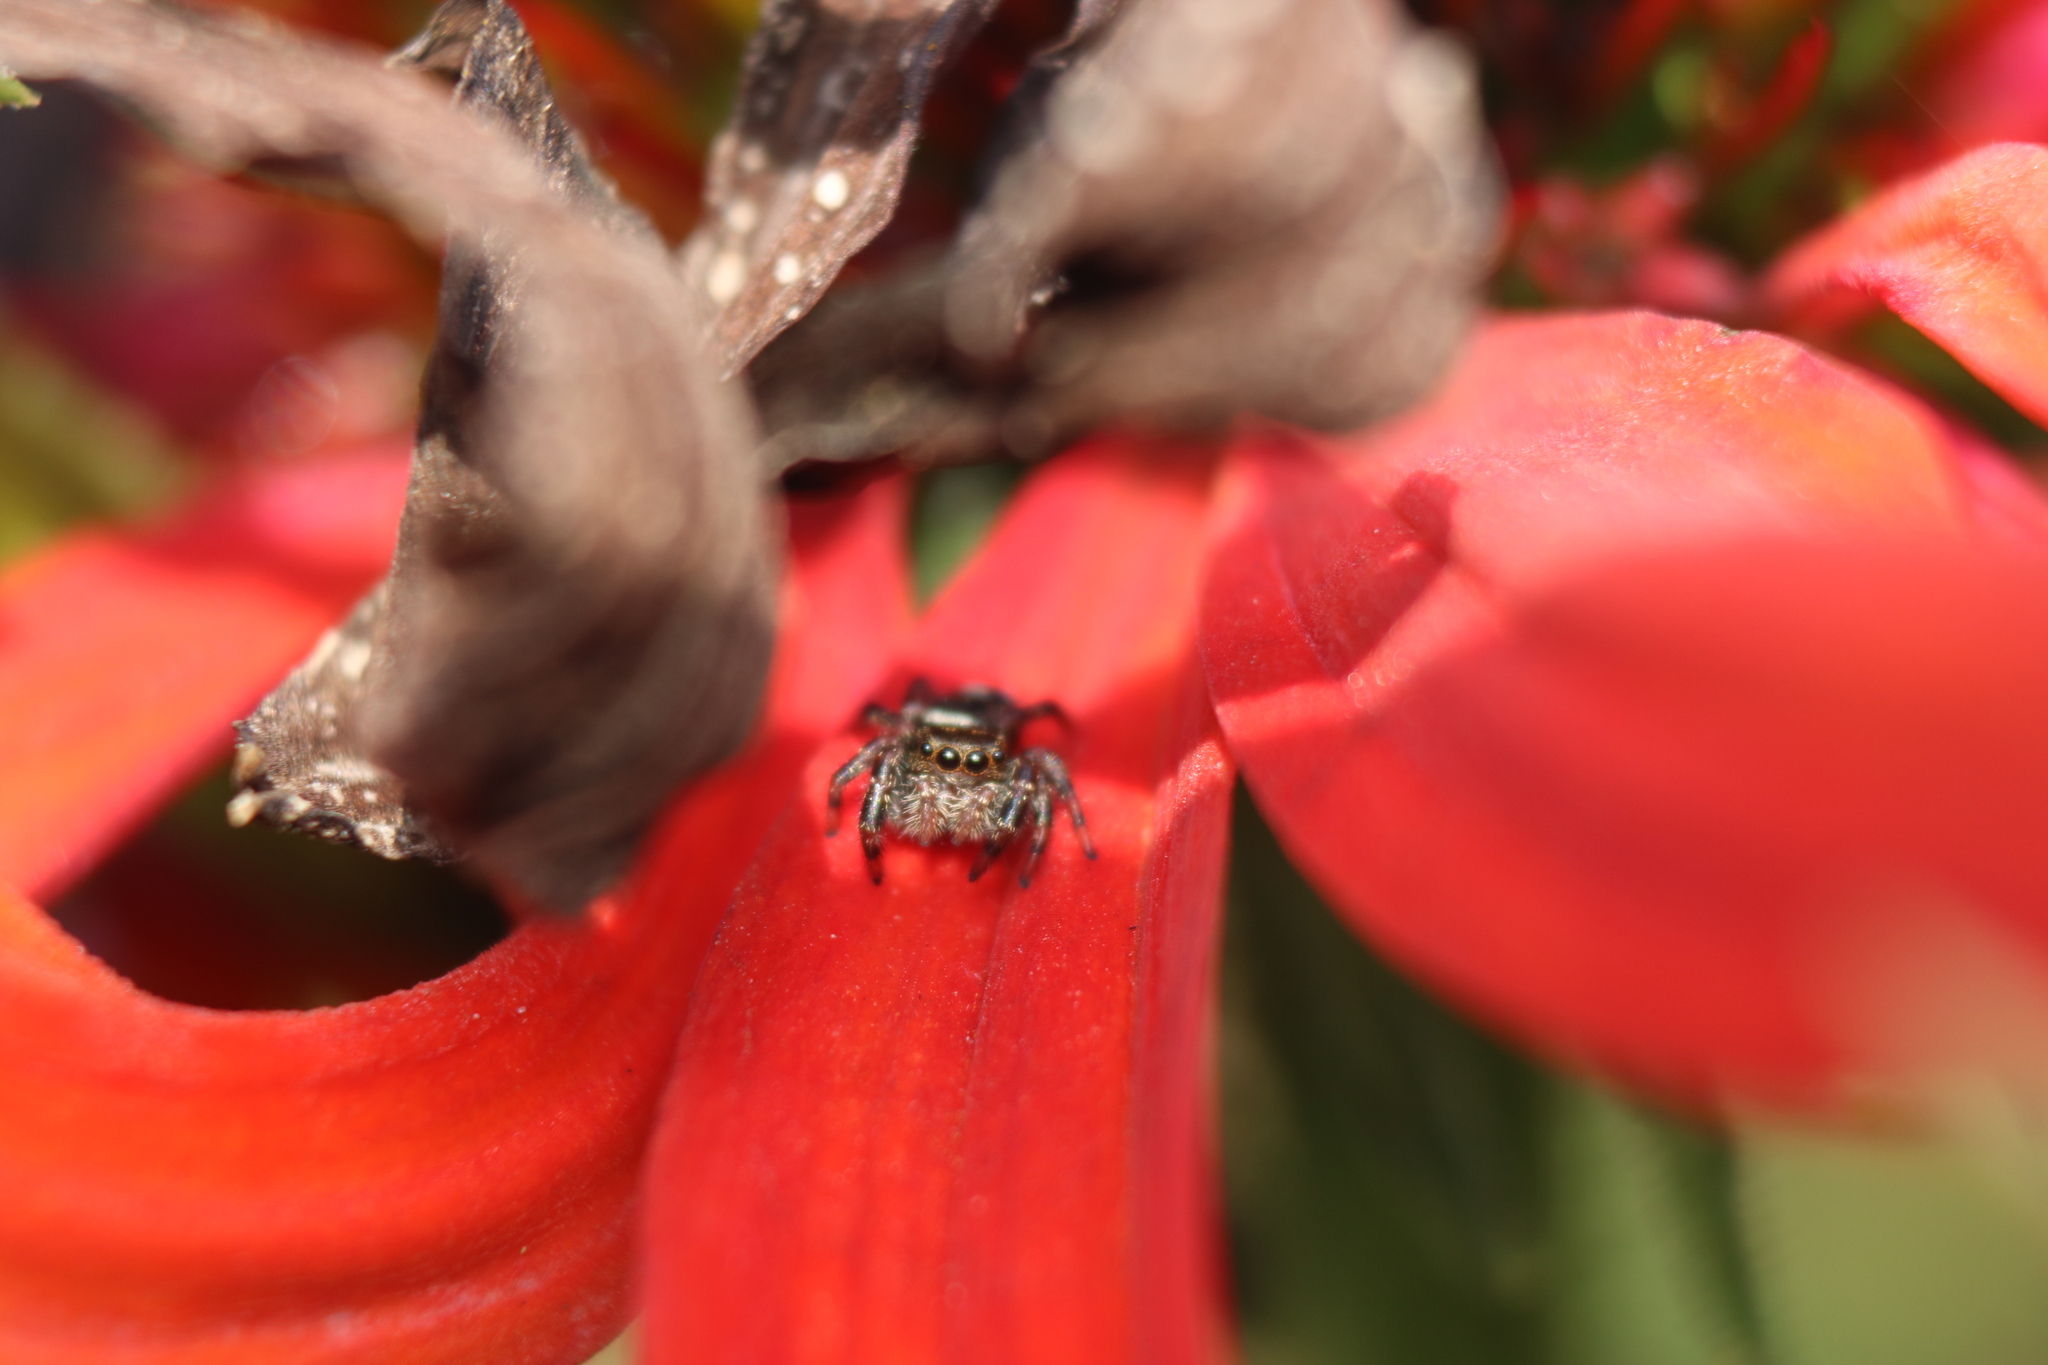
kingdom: Animalia
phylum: Arthropoda
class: Arachnida
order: Araneae
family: Salticidae
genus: Phidippus
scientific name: Phidippus audax
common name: Bold jumper
